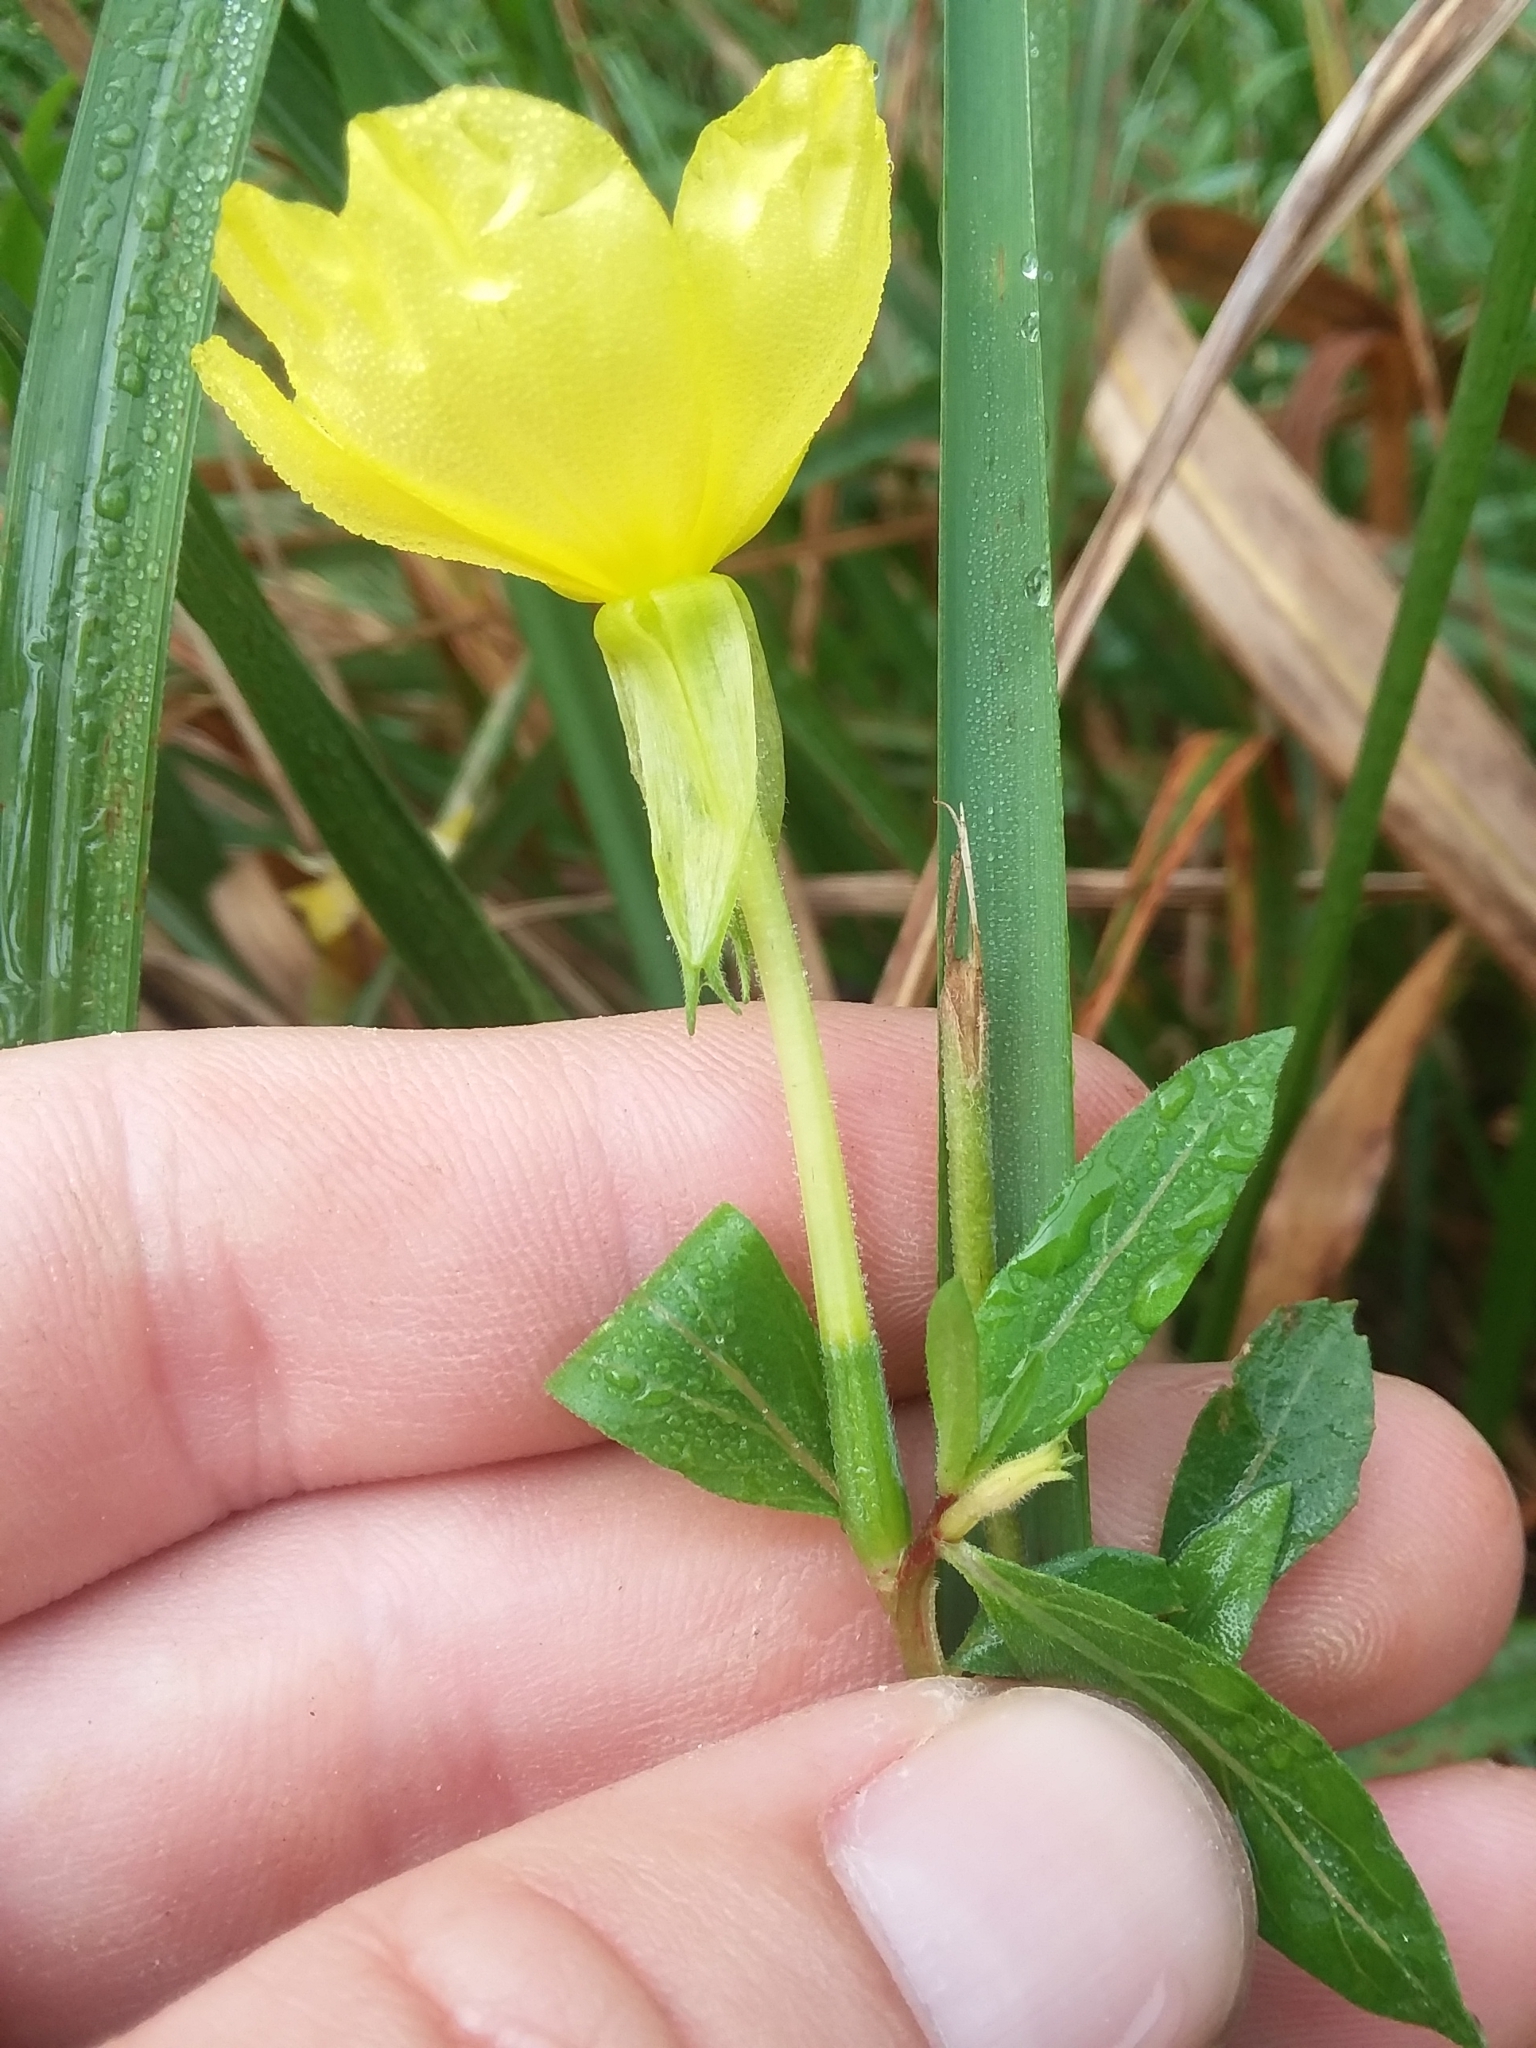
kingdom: Plantae
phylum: Tracheophyta
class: Magnoliopsida
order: Myrtales
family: Onagraceae
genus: Oenothera
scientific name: Oenothera biennis
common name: Common evening-primrose
